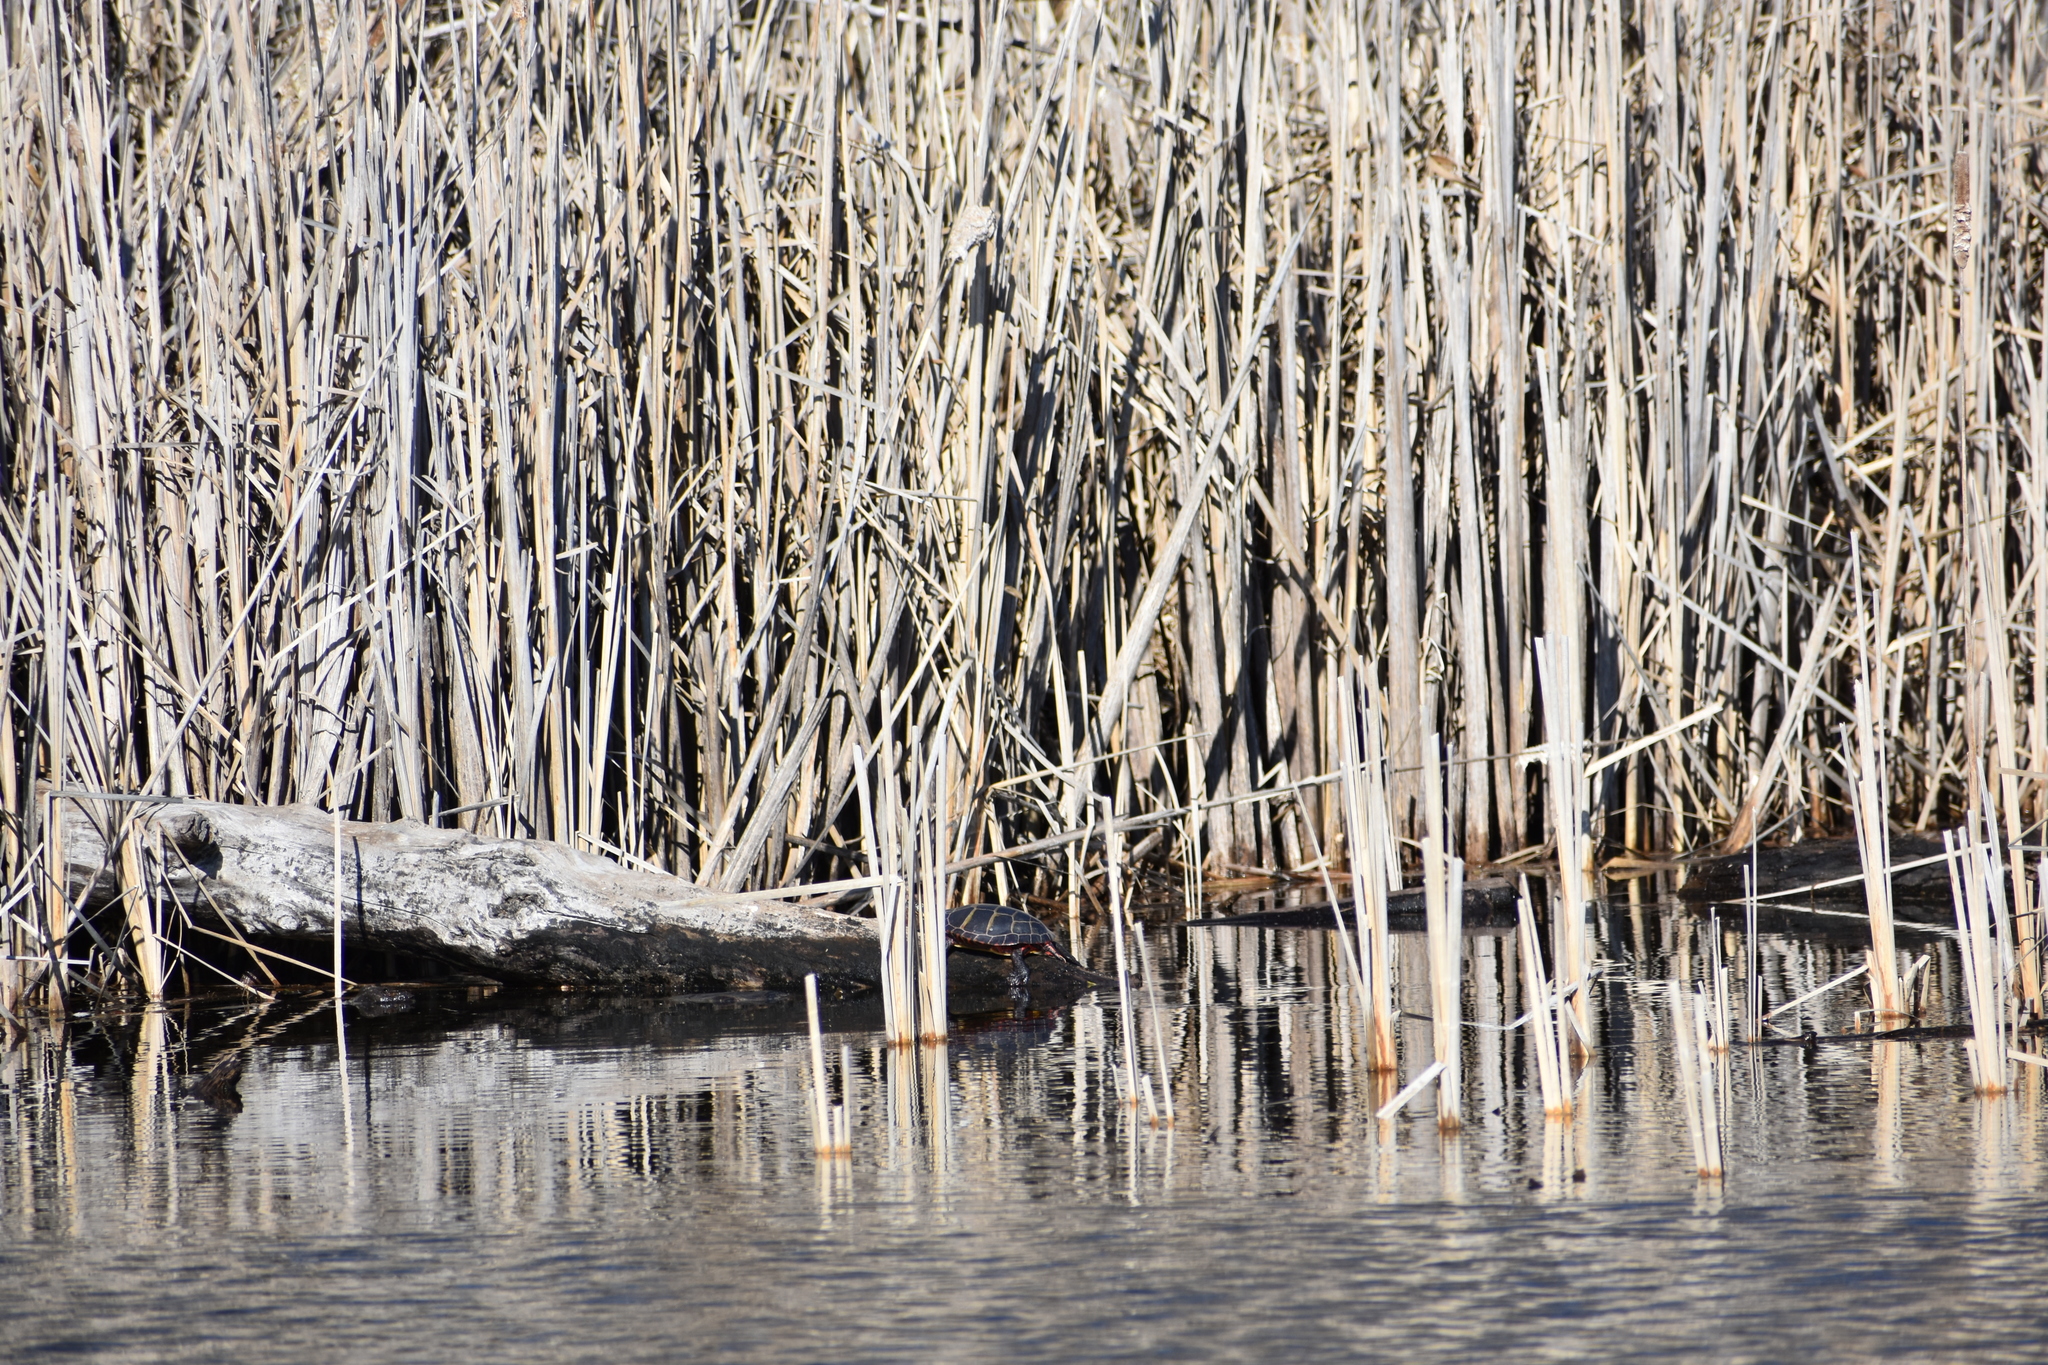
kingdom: Animalia
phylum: Chordata
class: Testudines
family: Emydidae
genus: Chrysemys
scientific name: Chrysemys picta
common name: Painted turtle
